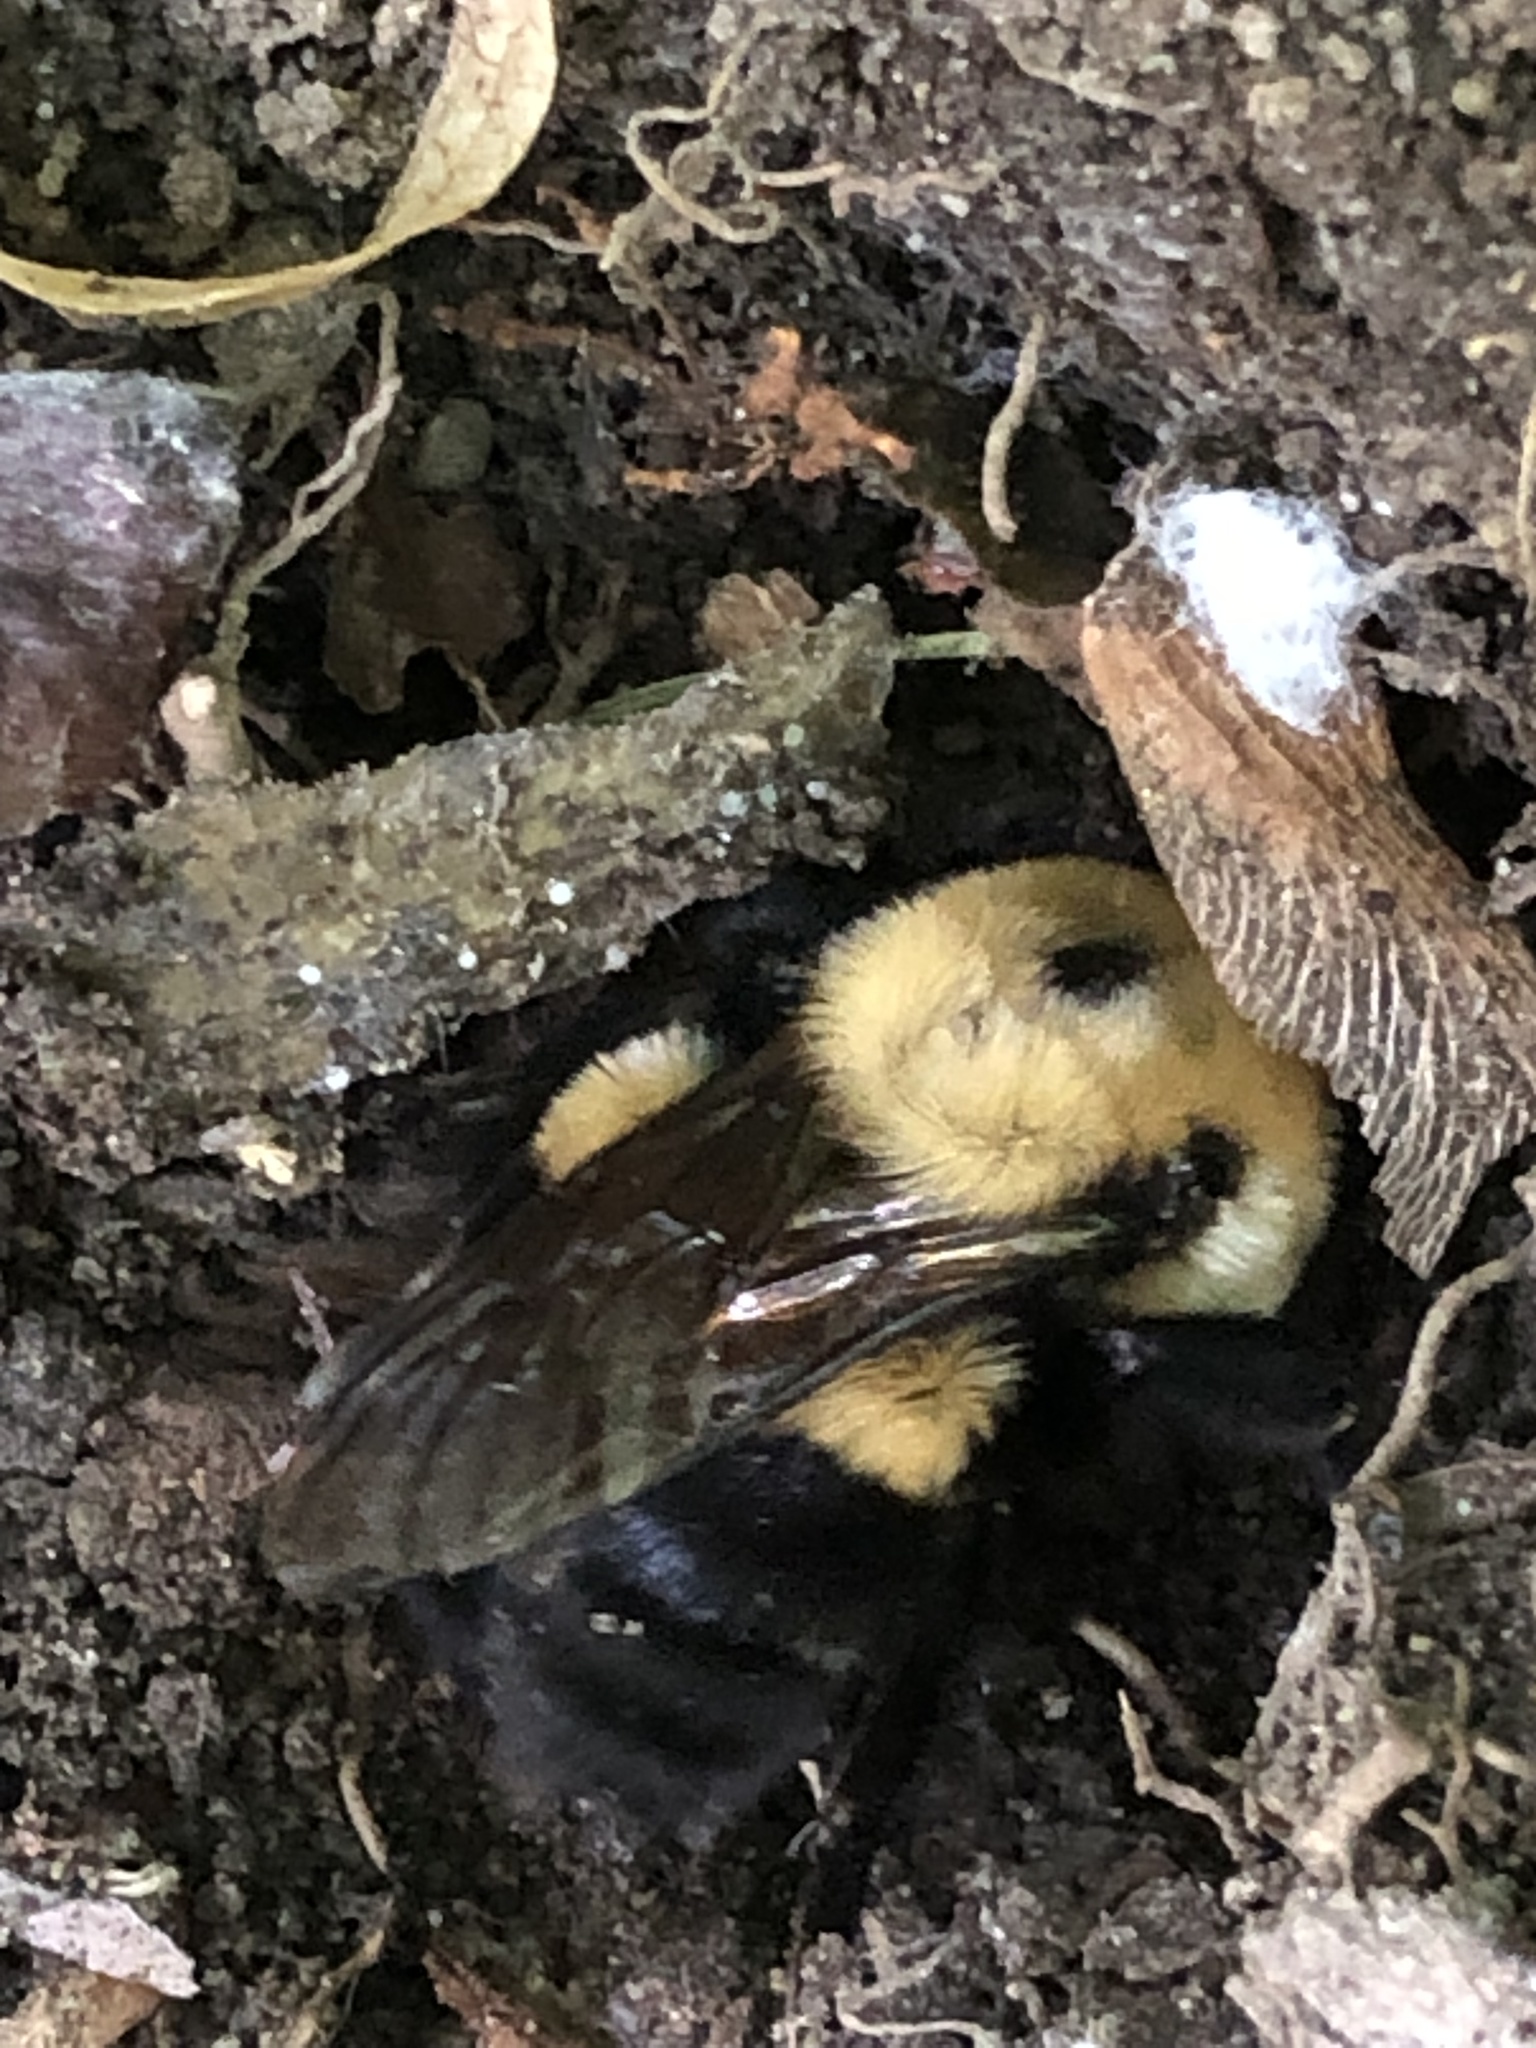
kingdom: Animalia
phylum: Arthropoda
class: Insecta
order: Hymenoptera
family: Apidae
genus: Bombus
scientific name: Bombus griseocollis
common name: Brown-belted bumble bee
